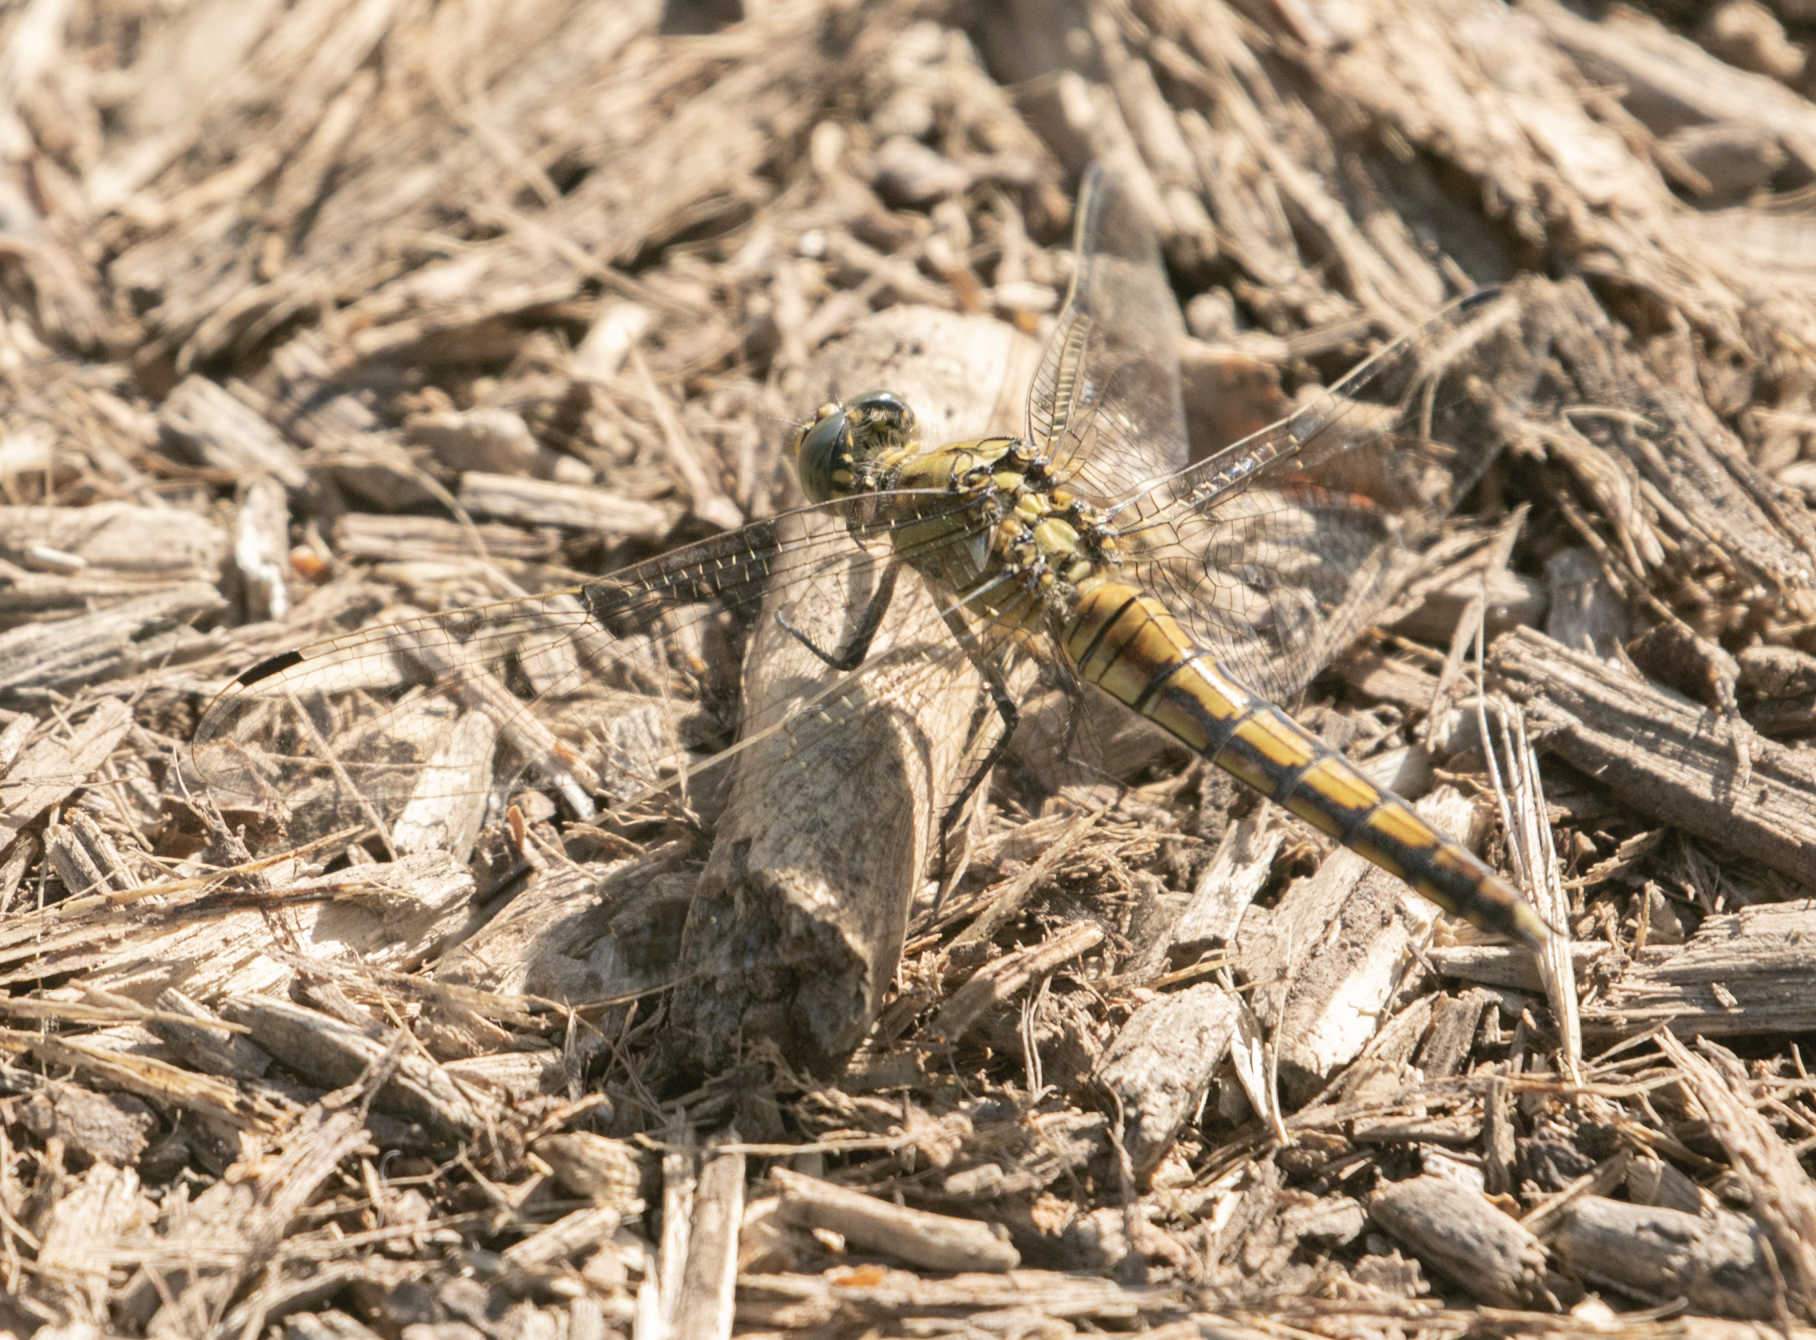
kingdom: Animalia
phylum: Arthropoda
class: Insecta
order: Odonata
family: Libellulidae
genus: Orthetrum
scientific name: Orthetrum cancellatum
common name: Black-tailed skimmer
